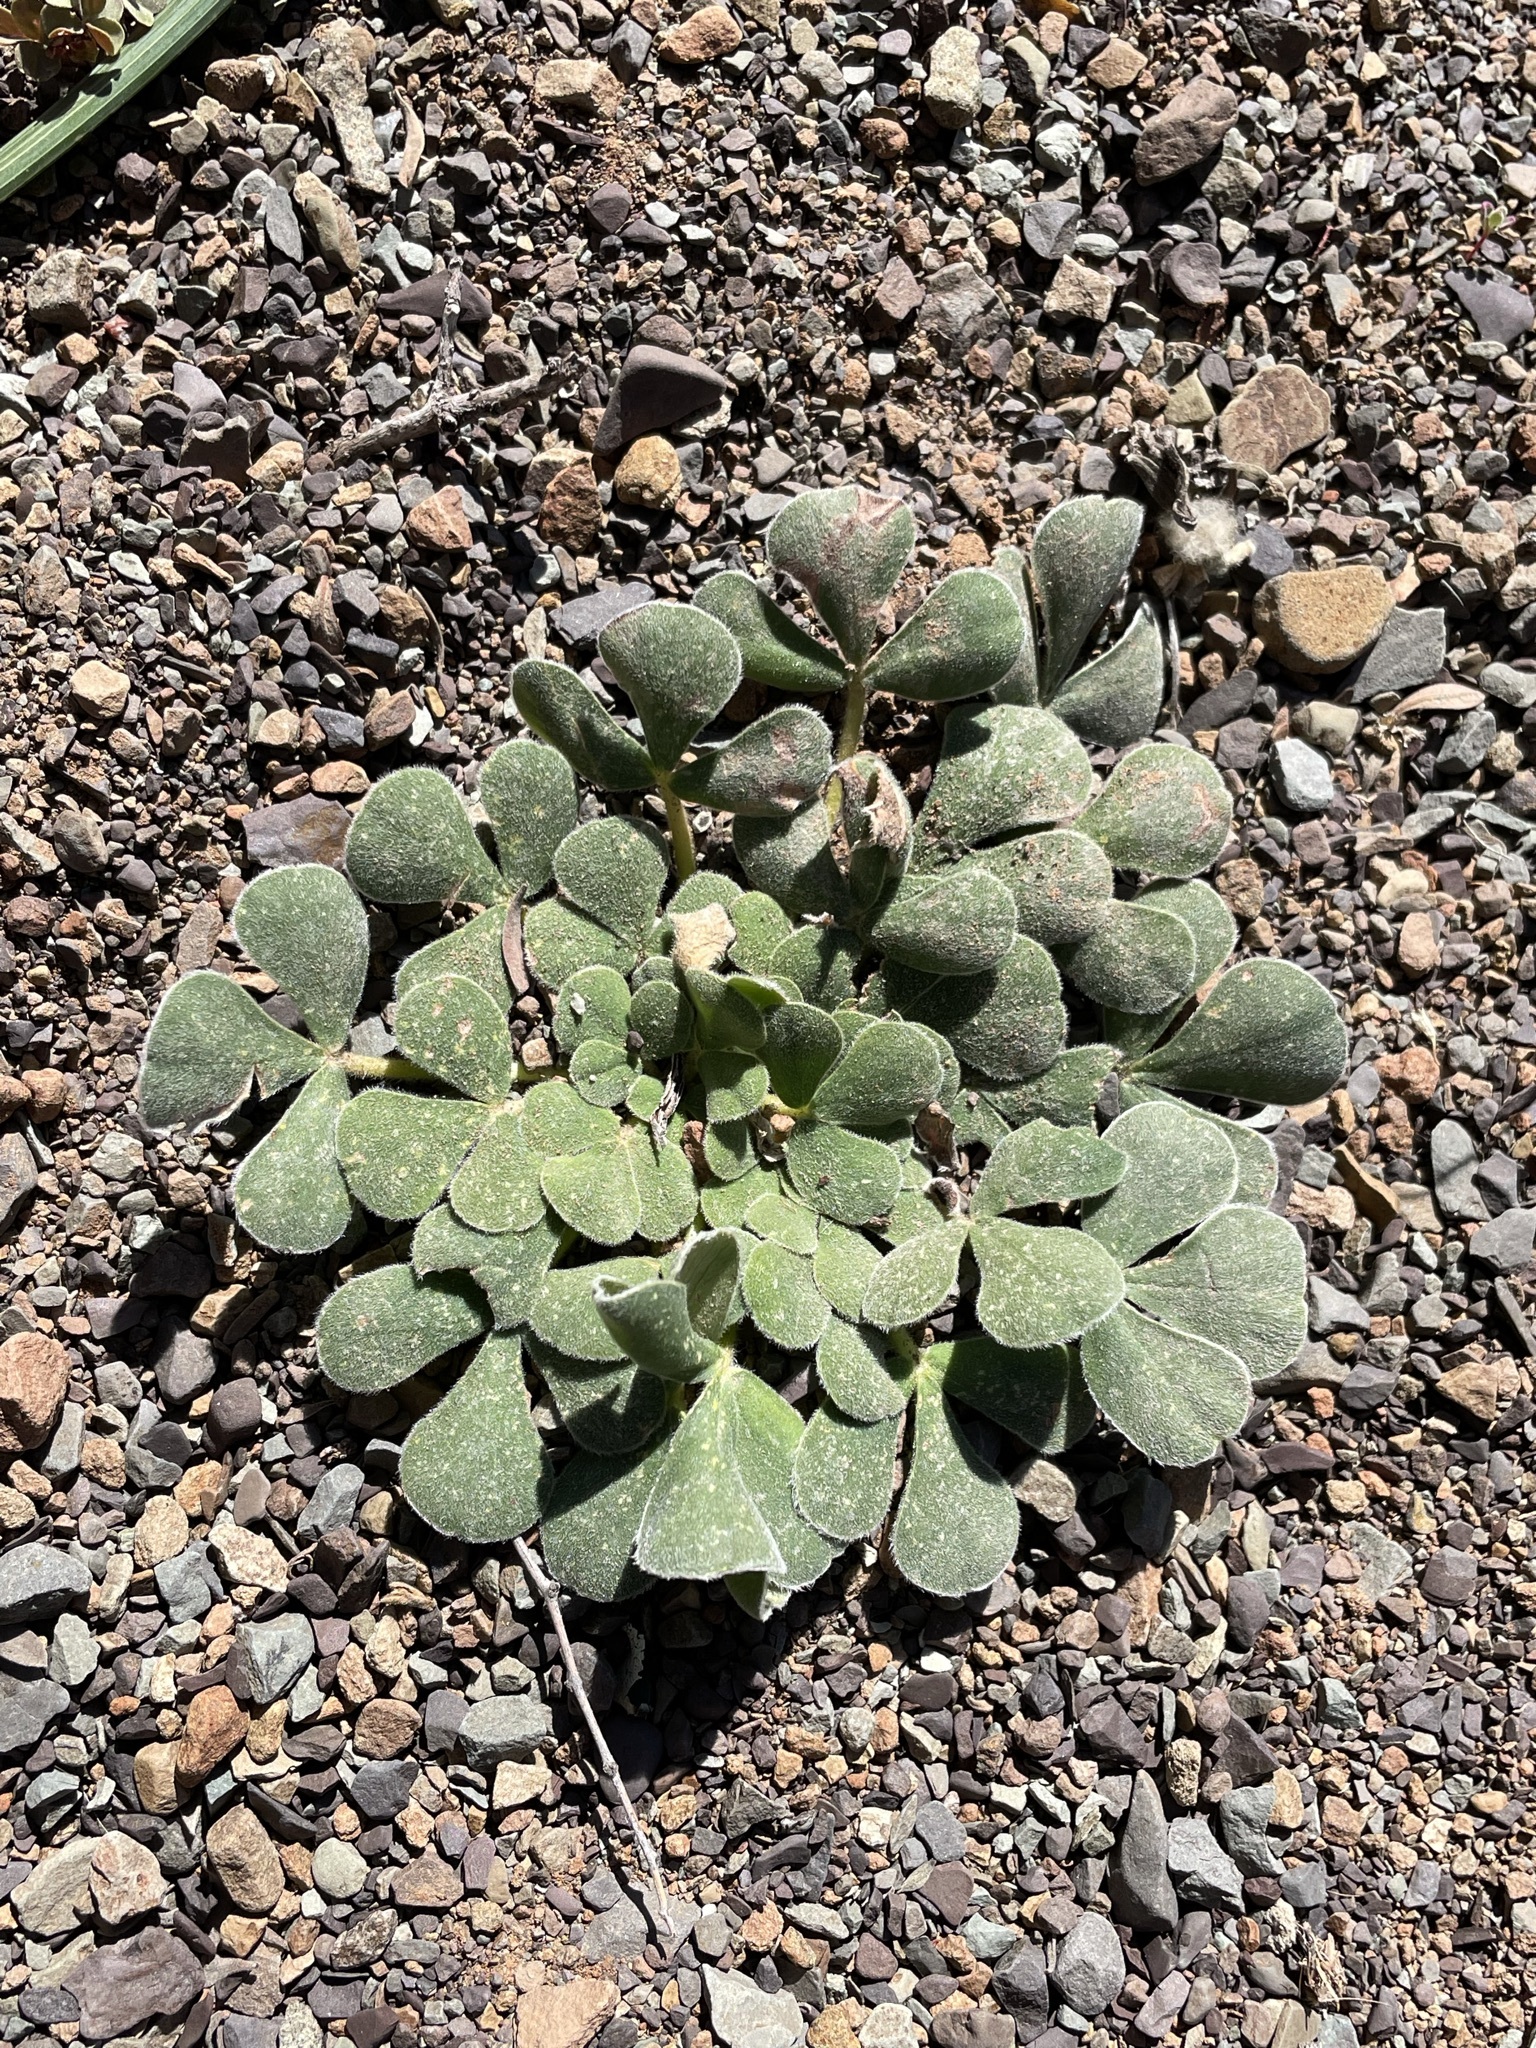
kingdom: Plantae
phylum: Tracheophyta
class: Magnoliopsida
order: Oxalidales
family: Oxalidaceae
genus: Oxalis
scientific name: Oxalis melanosticta
